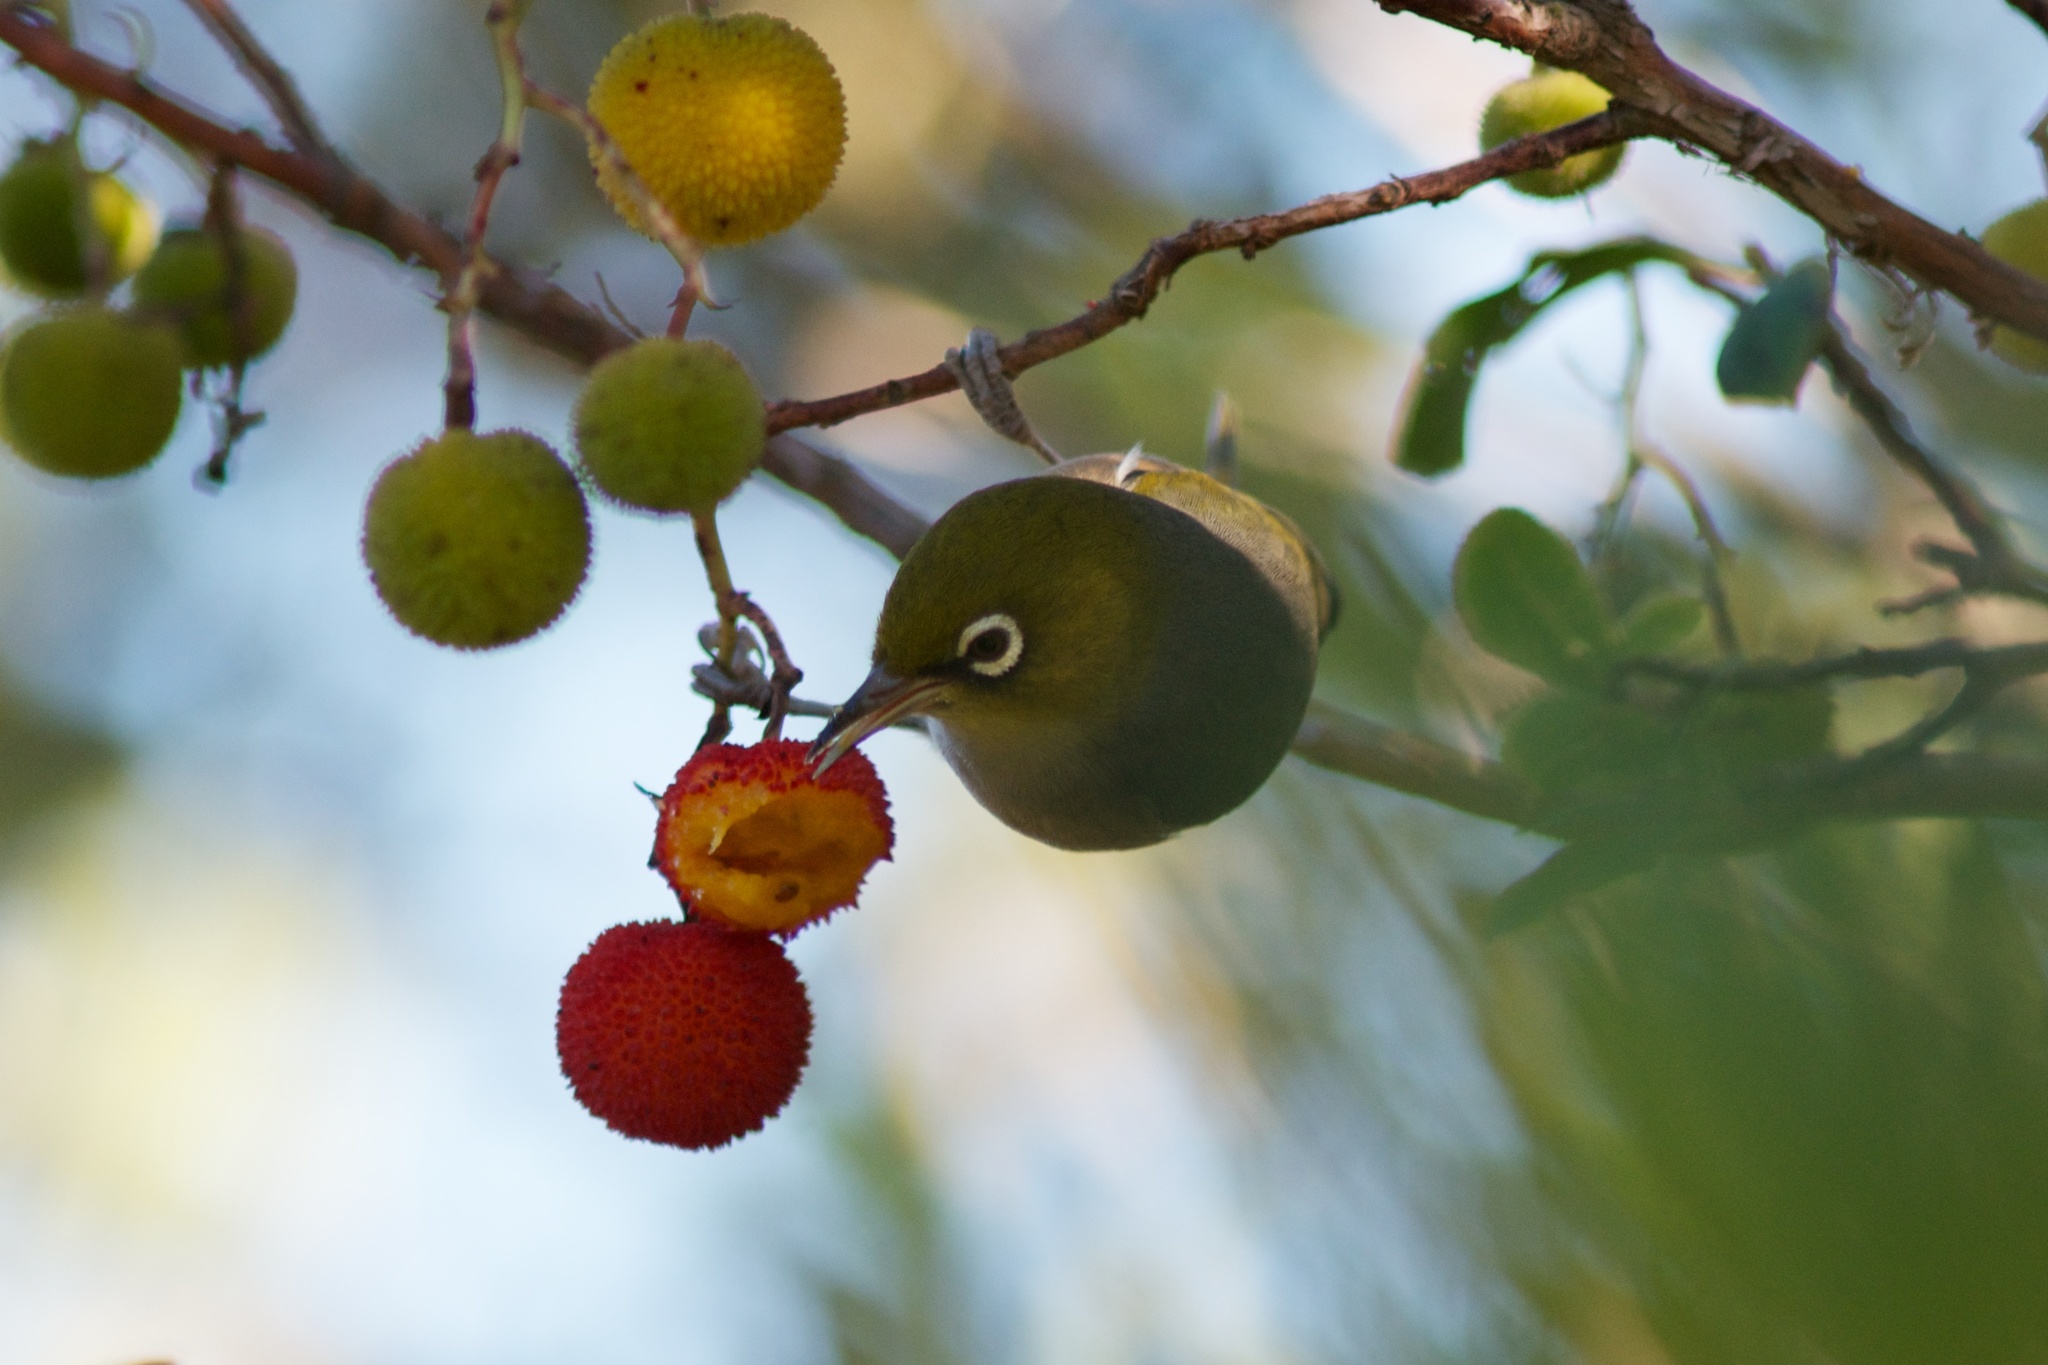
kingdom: Animalia
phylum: Chordata
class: Aves
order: Passeriformes
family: Zosteropidae
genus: Zosterops
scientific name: Zosterops lateralis
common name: Silvereye
